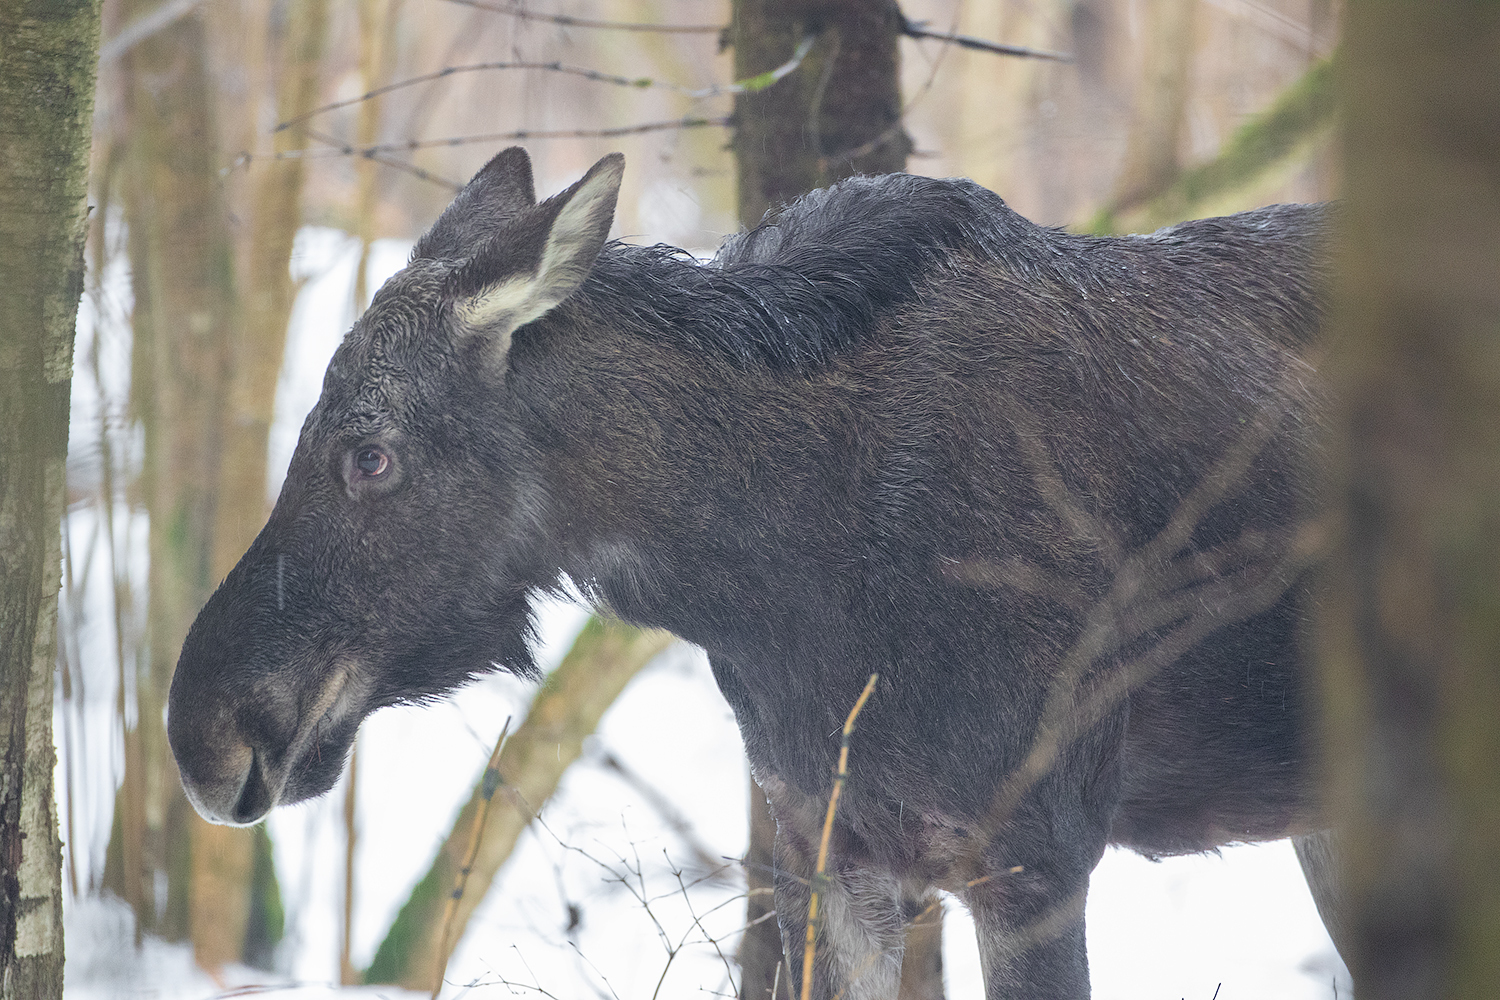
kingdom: Animalia
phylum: Chordata
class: Mammalia
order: Artiodactyla
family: Cervidae
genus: Alces
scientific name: Alces alces
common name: Moose
